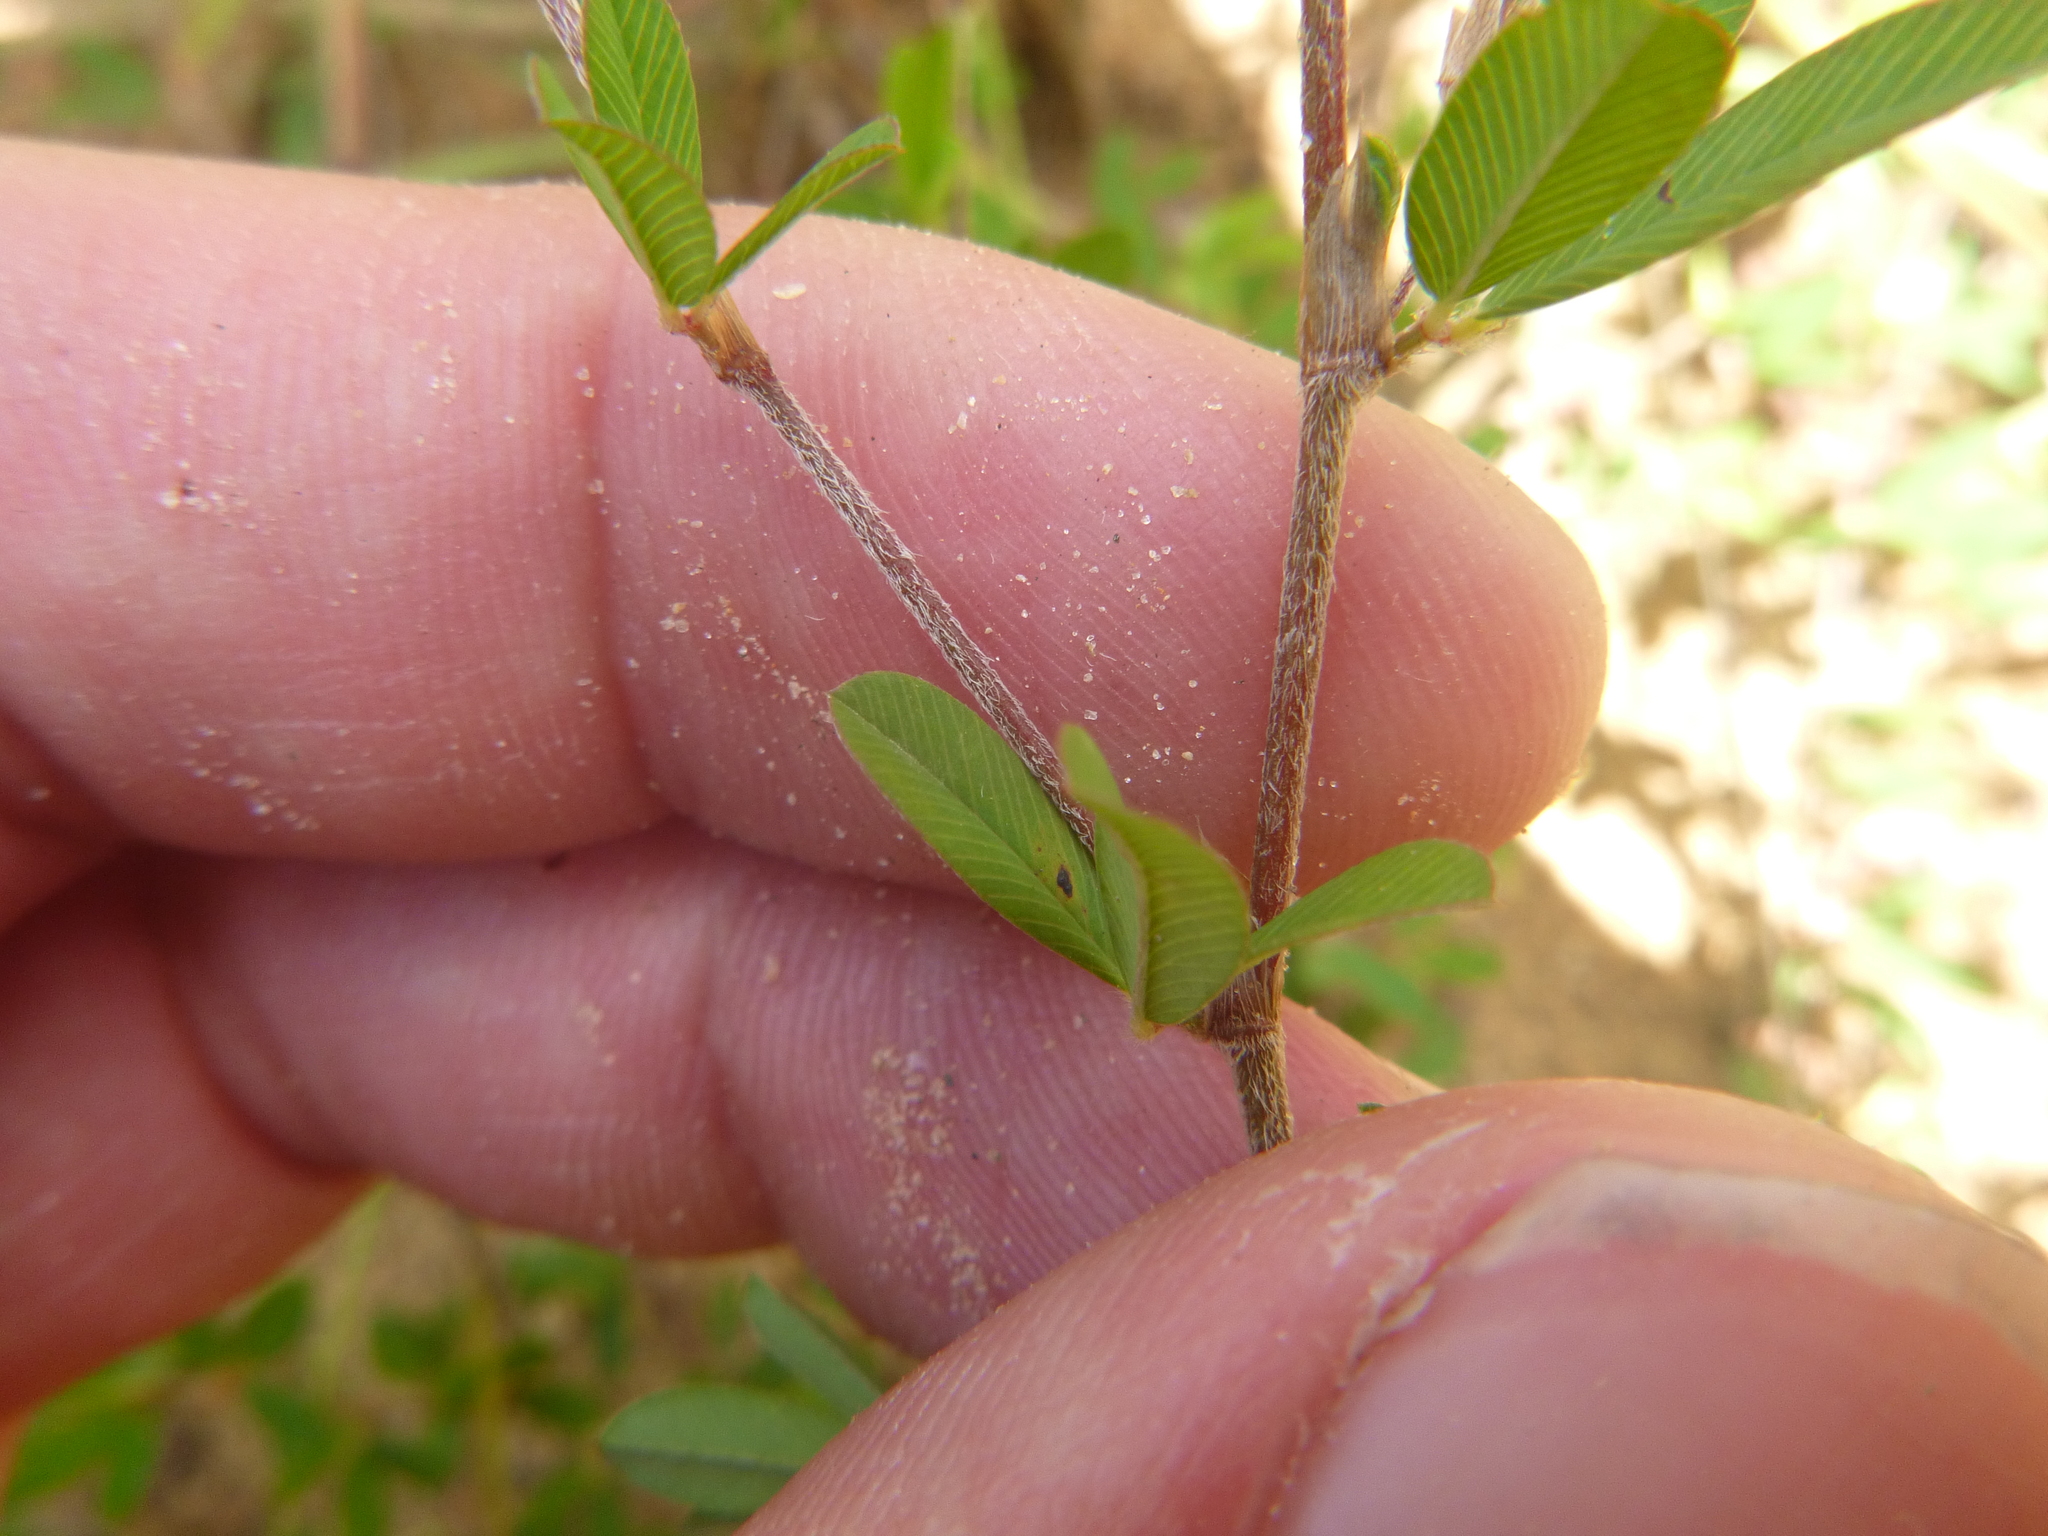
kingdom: Plantae
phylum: Tracheophyta
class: Magnoliopsida
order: Fabales
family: Fabaceae
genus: Kummerowia
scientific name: Kummerowia striata
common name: Japanese clover
